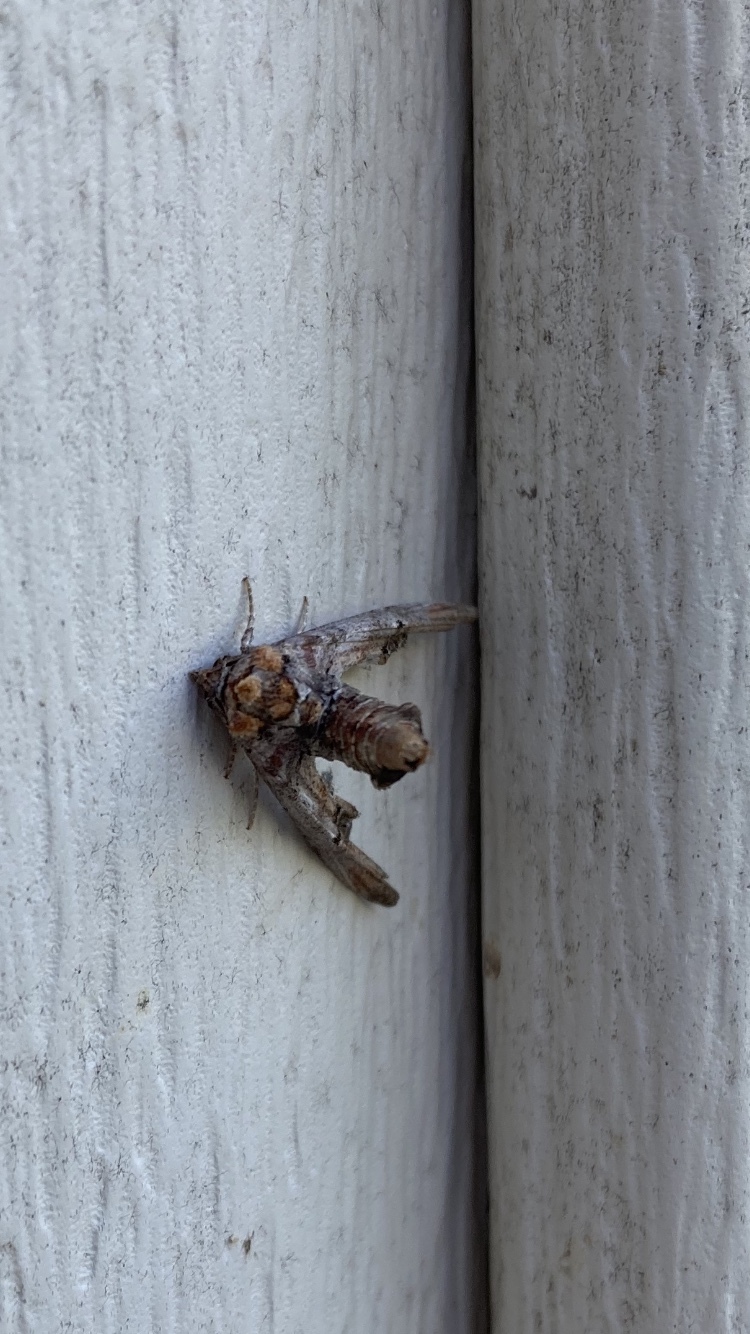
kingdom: Animalia
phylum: Arthropoda
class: Insecta
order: Lepidoptera
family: Euteliidae
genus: Marathyssa
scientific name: Marathyssa inficita
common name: Dark marathyssa moth
